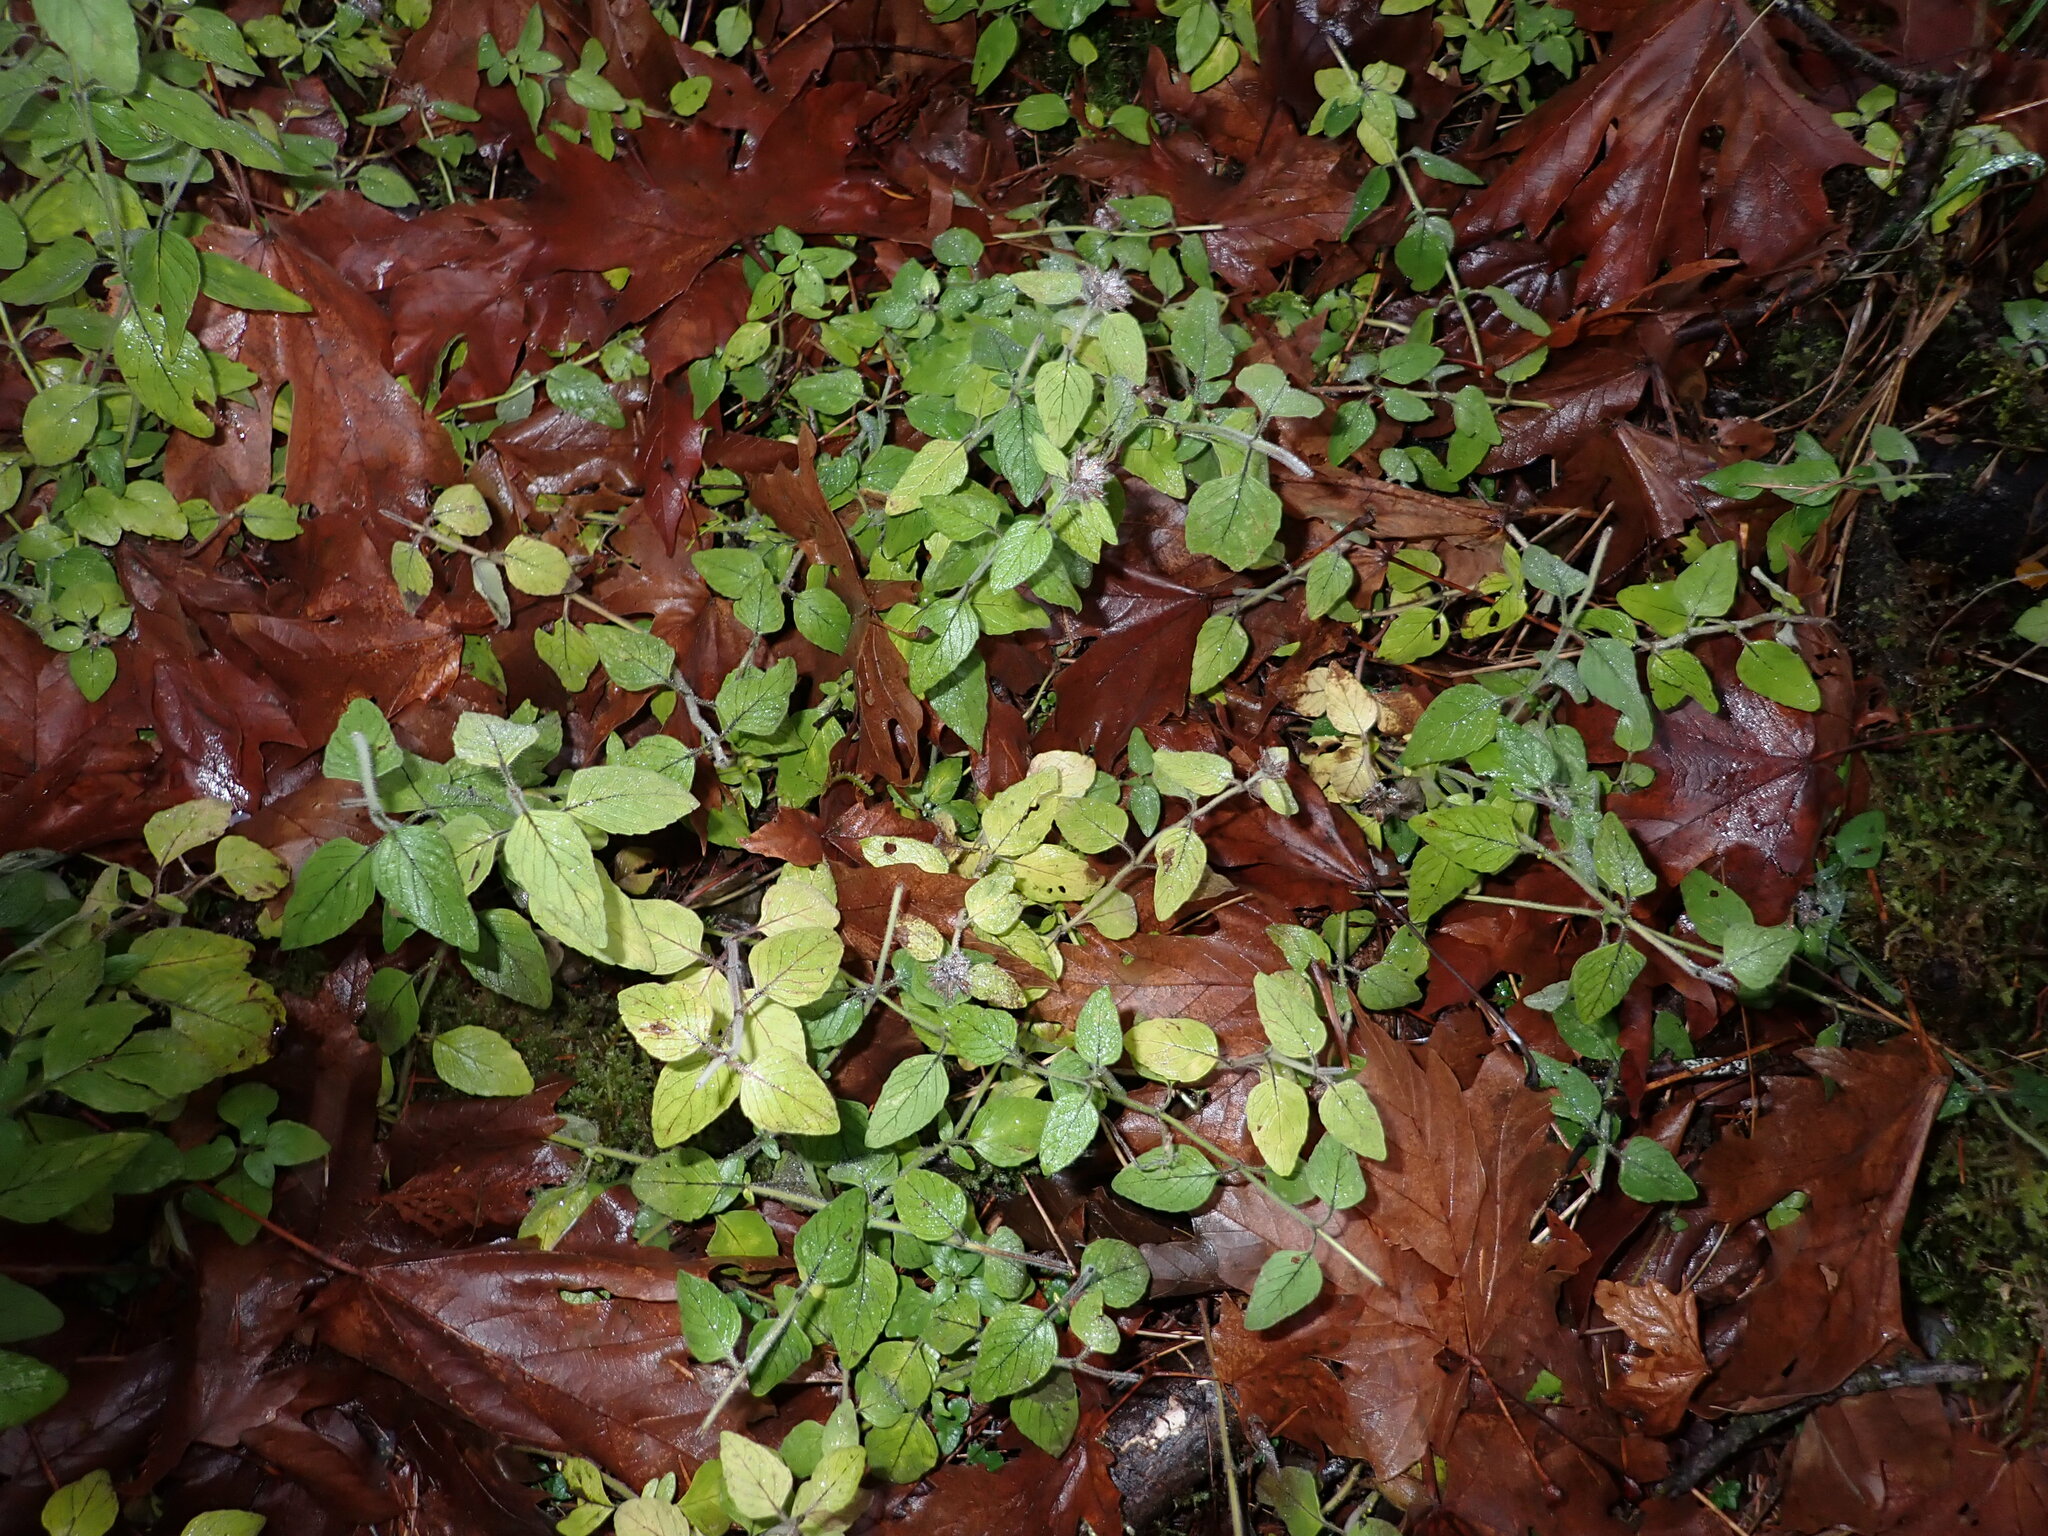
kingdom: Plantae
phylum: Tracheophyta
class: Magnoliopsida
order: Lamiales
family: Lamiaceae
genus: Clinopodium
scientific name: Clinopodium vulgare
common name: Wild basil
